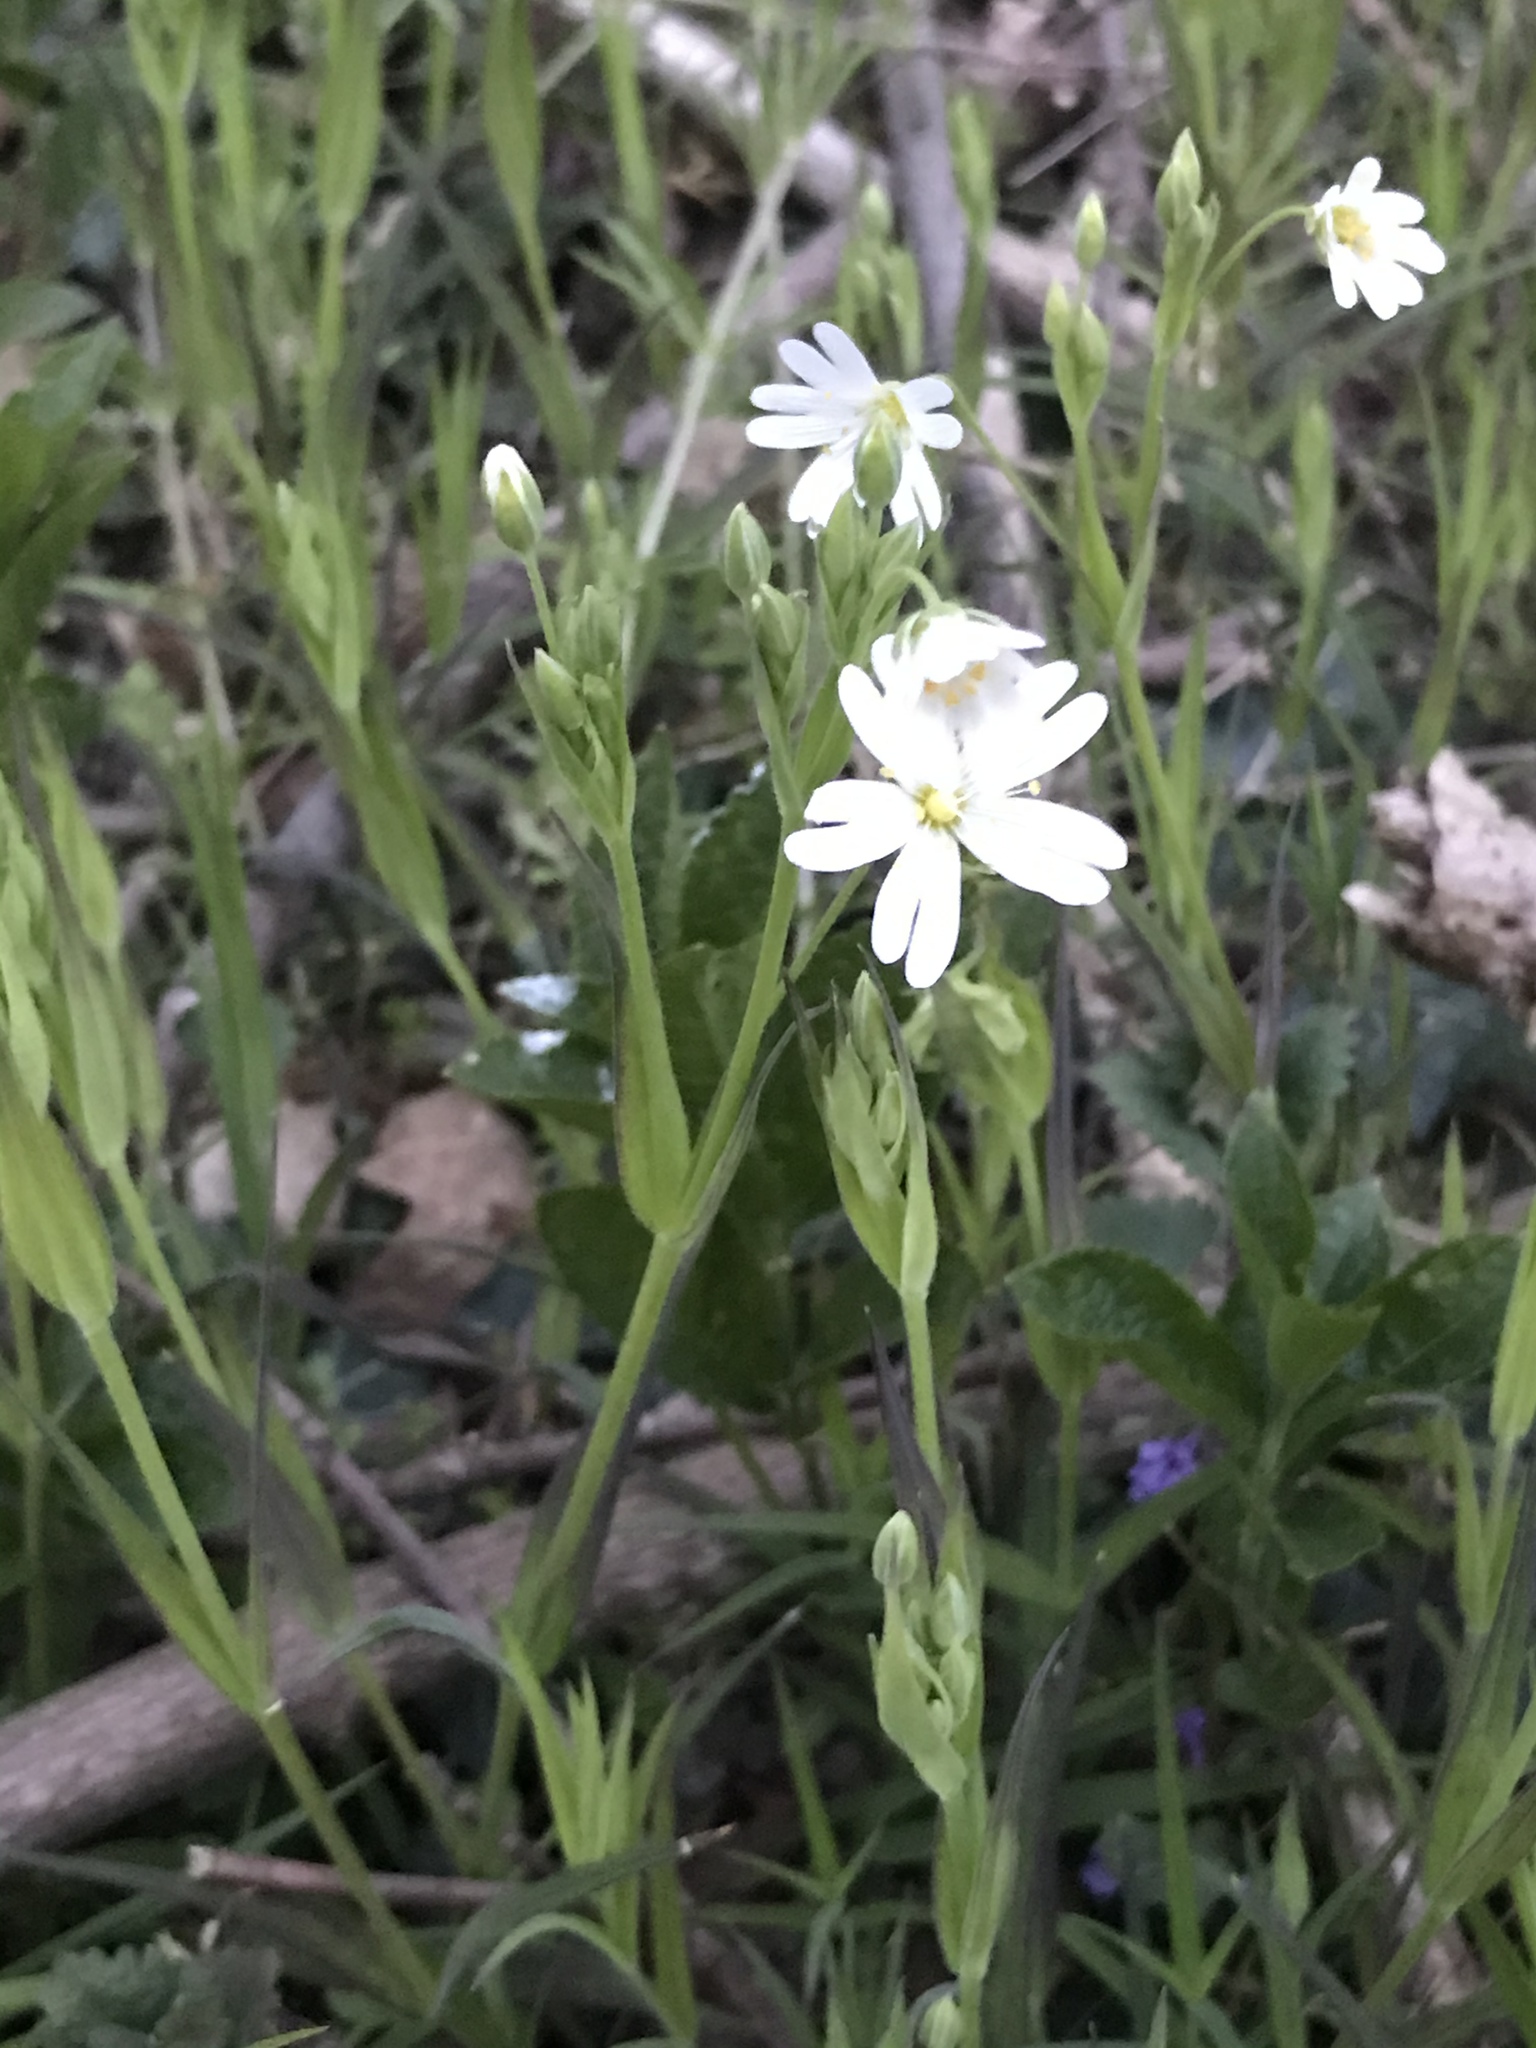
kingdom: Plantae
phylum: Tracheophyta
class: Magnoliopsida
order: Caryophyllales
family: Caryophyllaceae
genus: Rabelera
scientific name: Rabelera holostea
